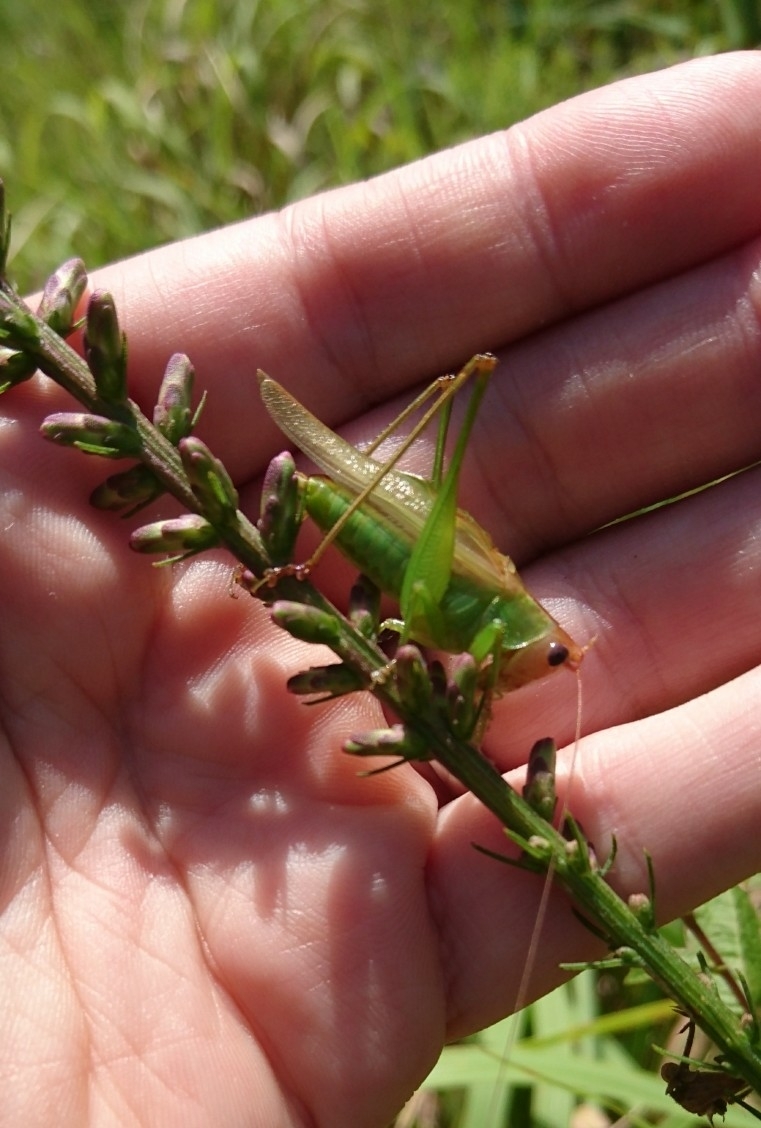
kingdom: Animalia
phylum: Arthropoda
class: Insecta
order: Orthoptera
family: Tettigoniidae
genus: Orchelimum
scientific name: Orchelimum erythrocephalum
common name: Red-headed meadow katydid
